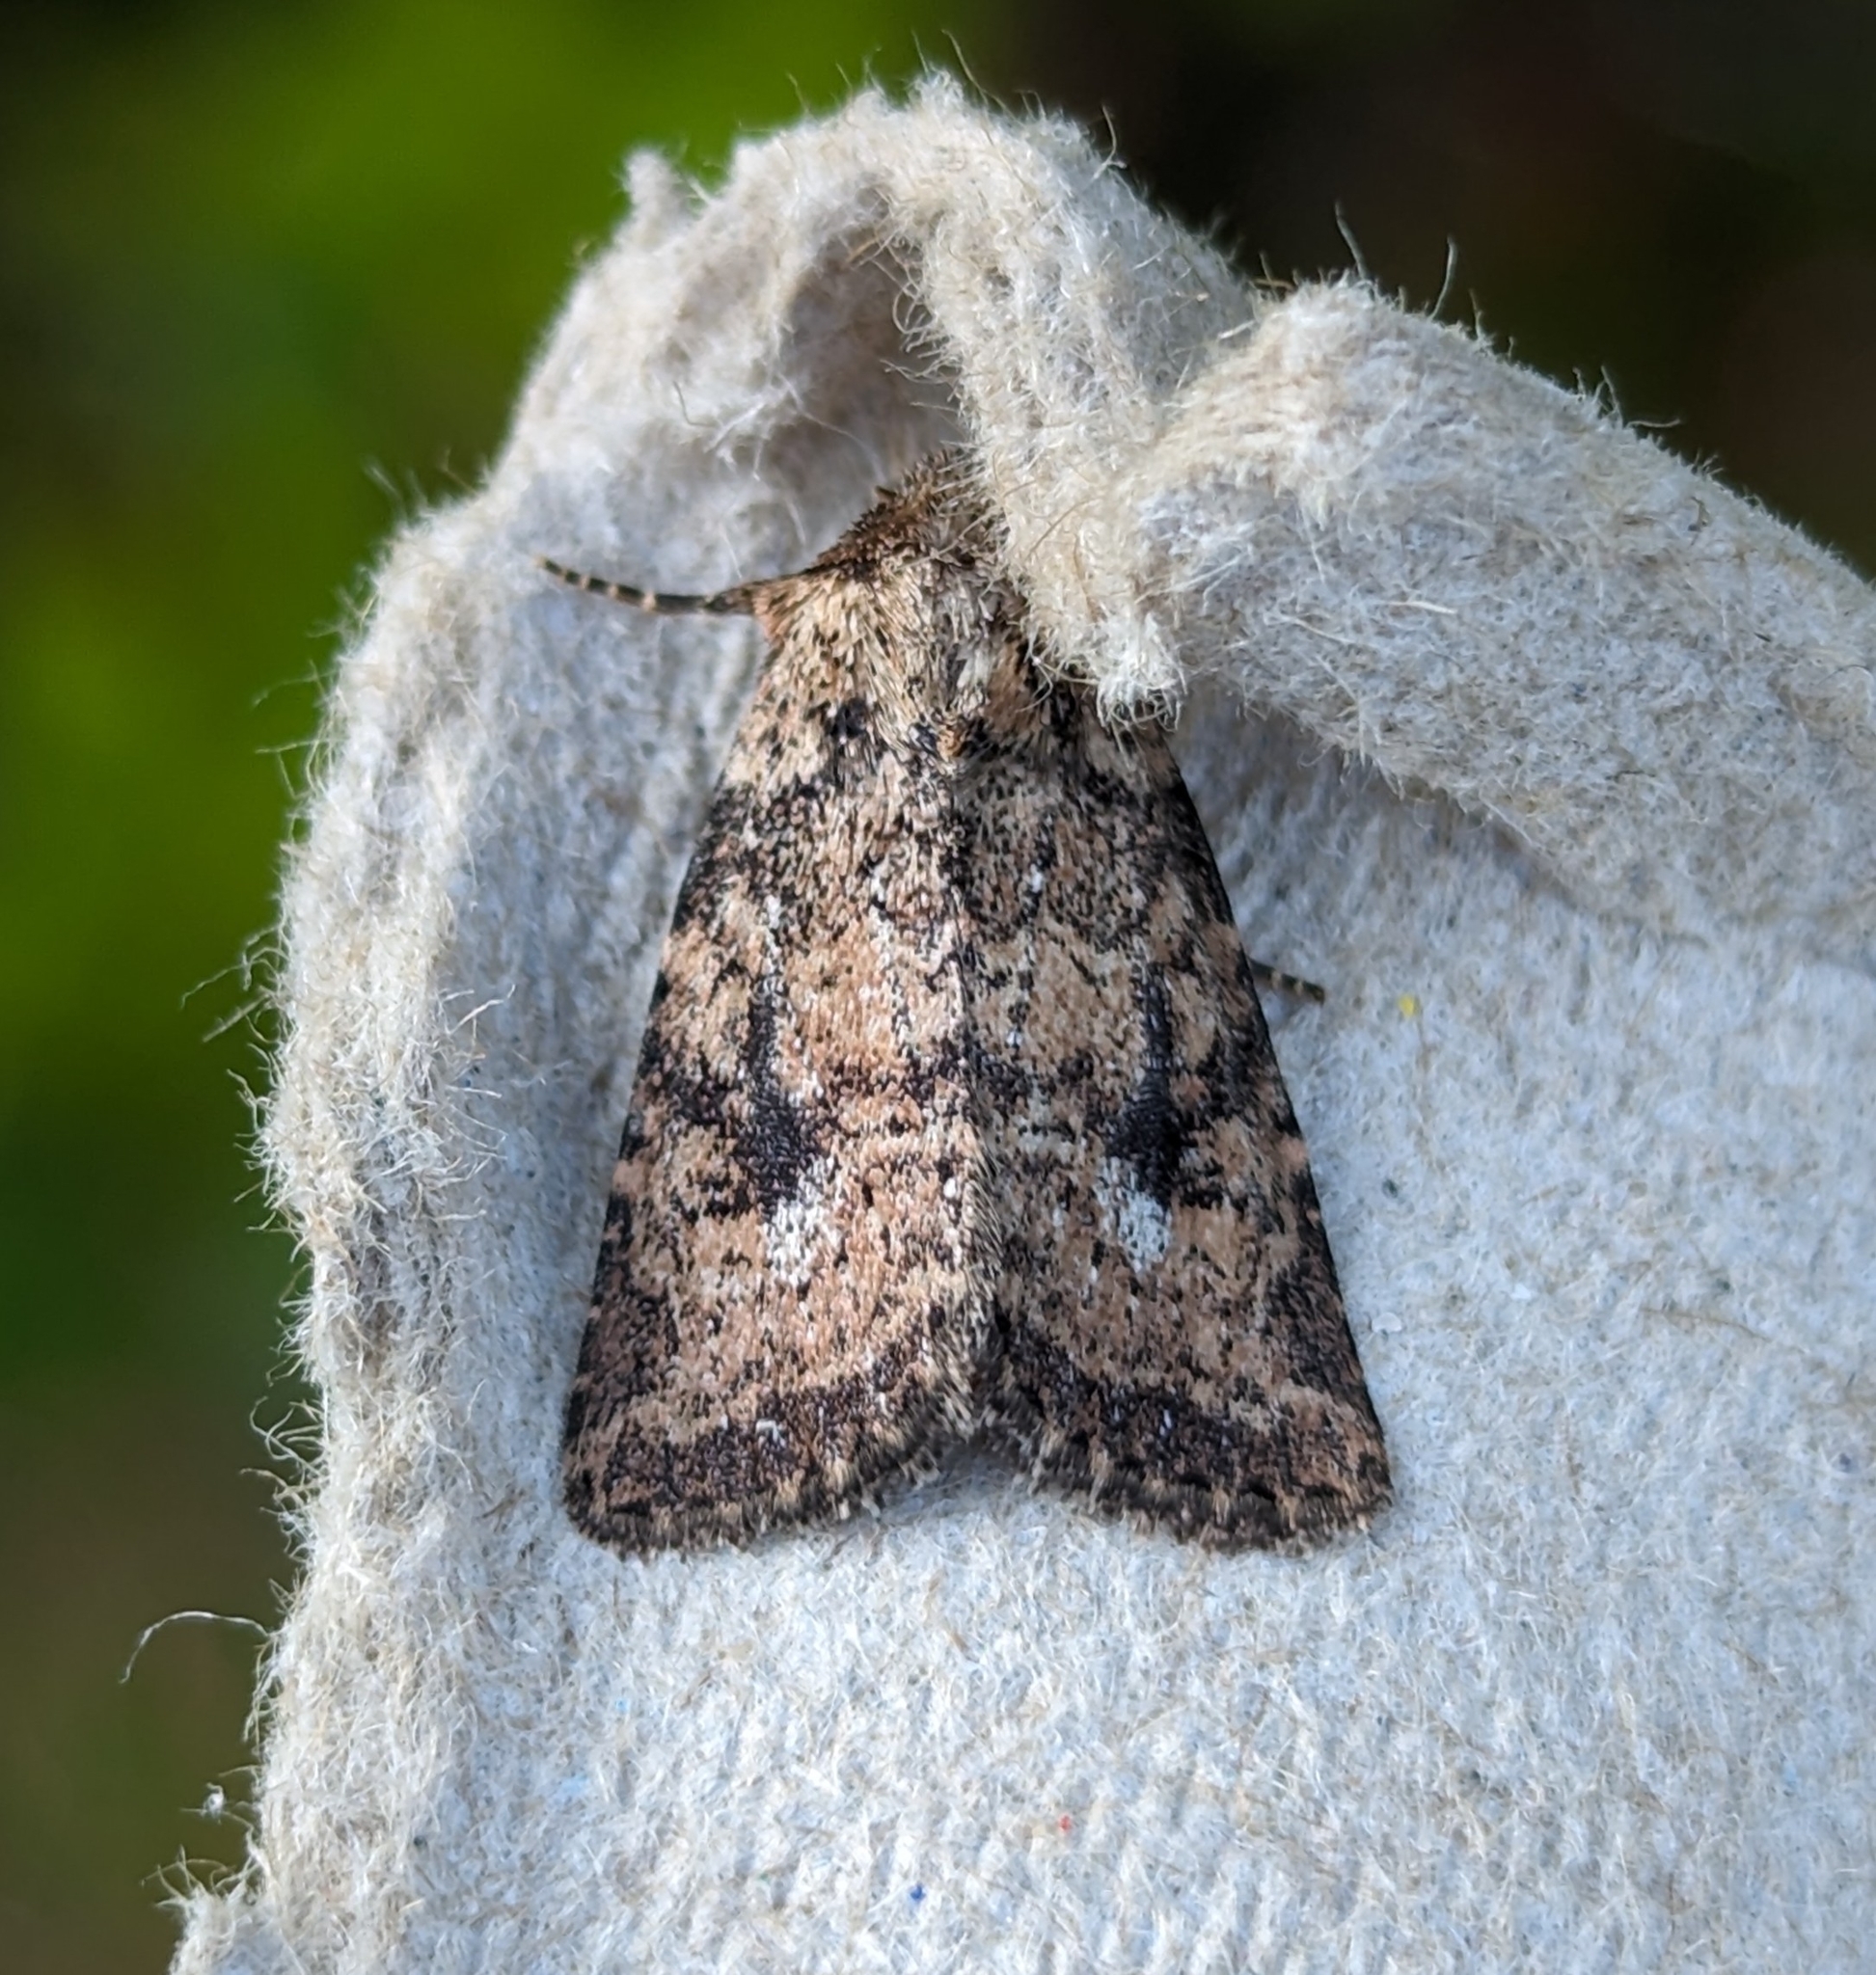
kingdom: Animalia
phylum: Arthropoda
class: Insecta
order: Lepidoptera
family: Noctuidae
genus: Homorthodes
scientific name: Homorthodes hanhami
